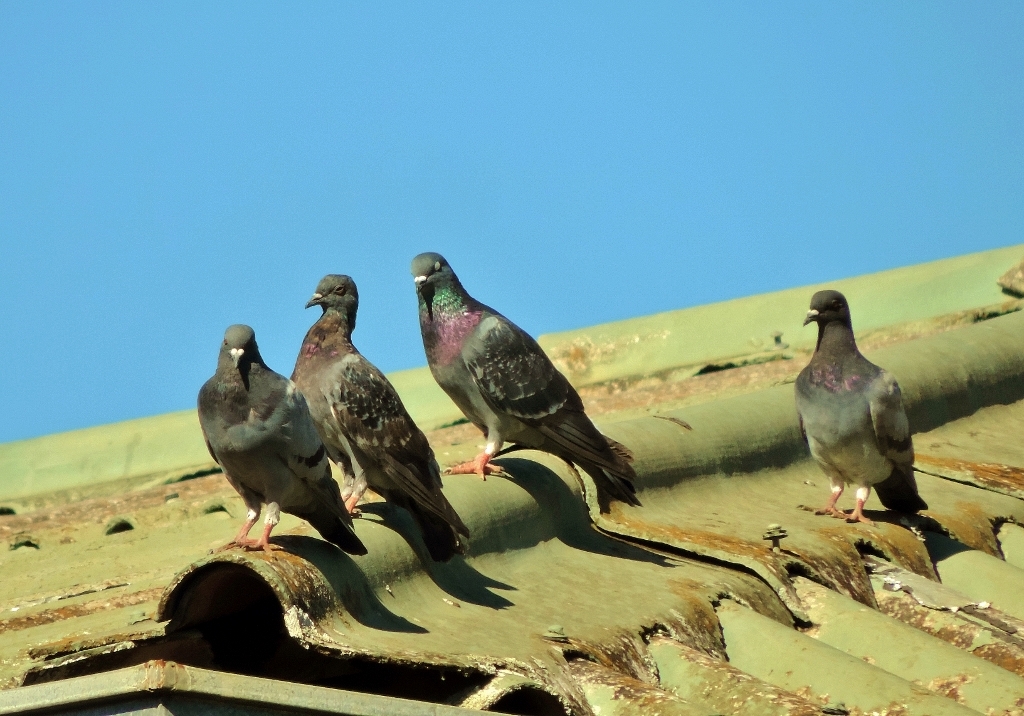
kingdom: Animalia
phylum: Chordata
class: Aves
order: Columbiformes
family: Columbidae
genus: Columba
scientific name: Columba livia
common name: Rock pigeon
